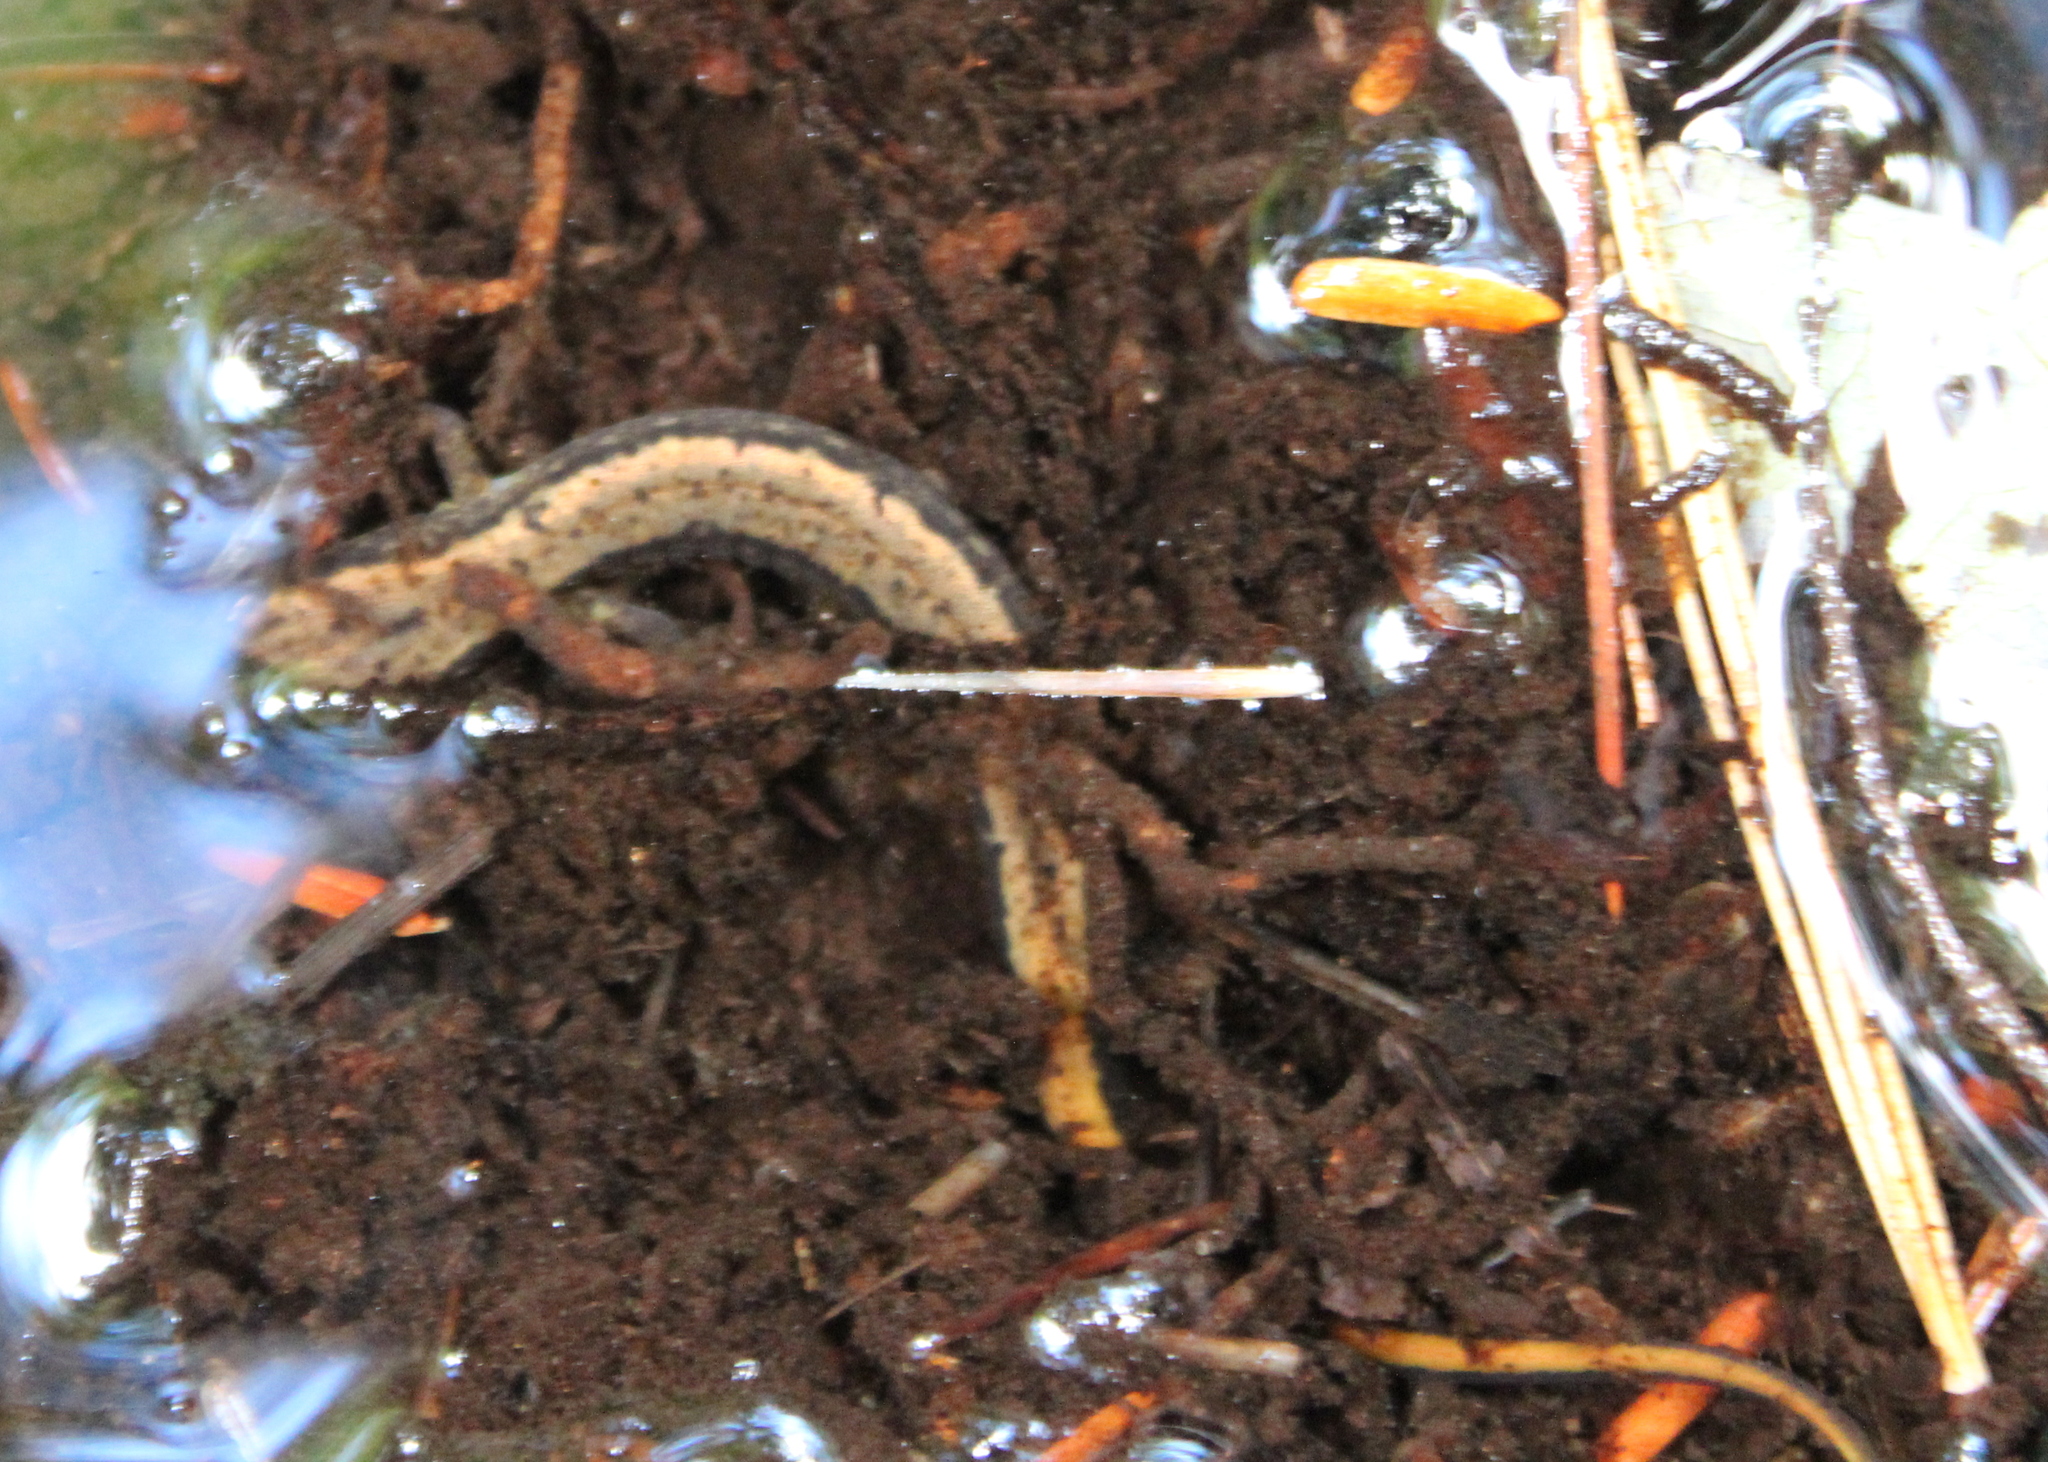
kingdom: Animalia
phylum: Chordata
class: Amphibia
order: Caudata
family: Plethodontidae
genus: Eurycea
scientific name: Eurycea bislineata
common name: Northern two-lined salamander
